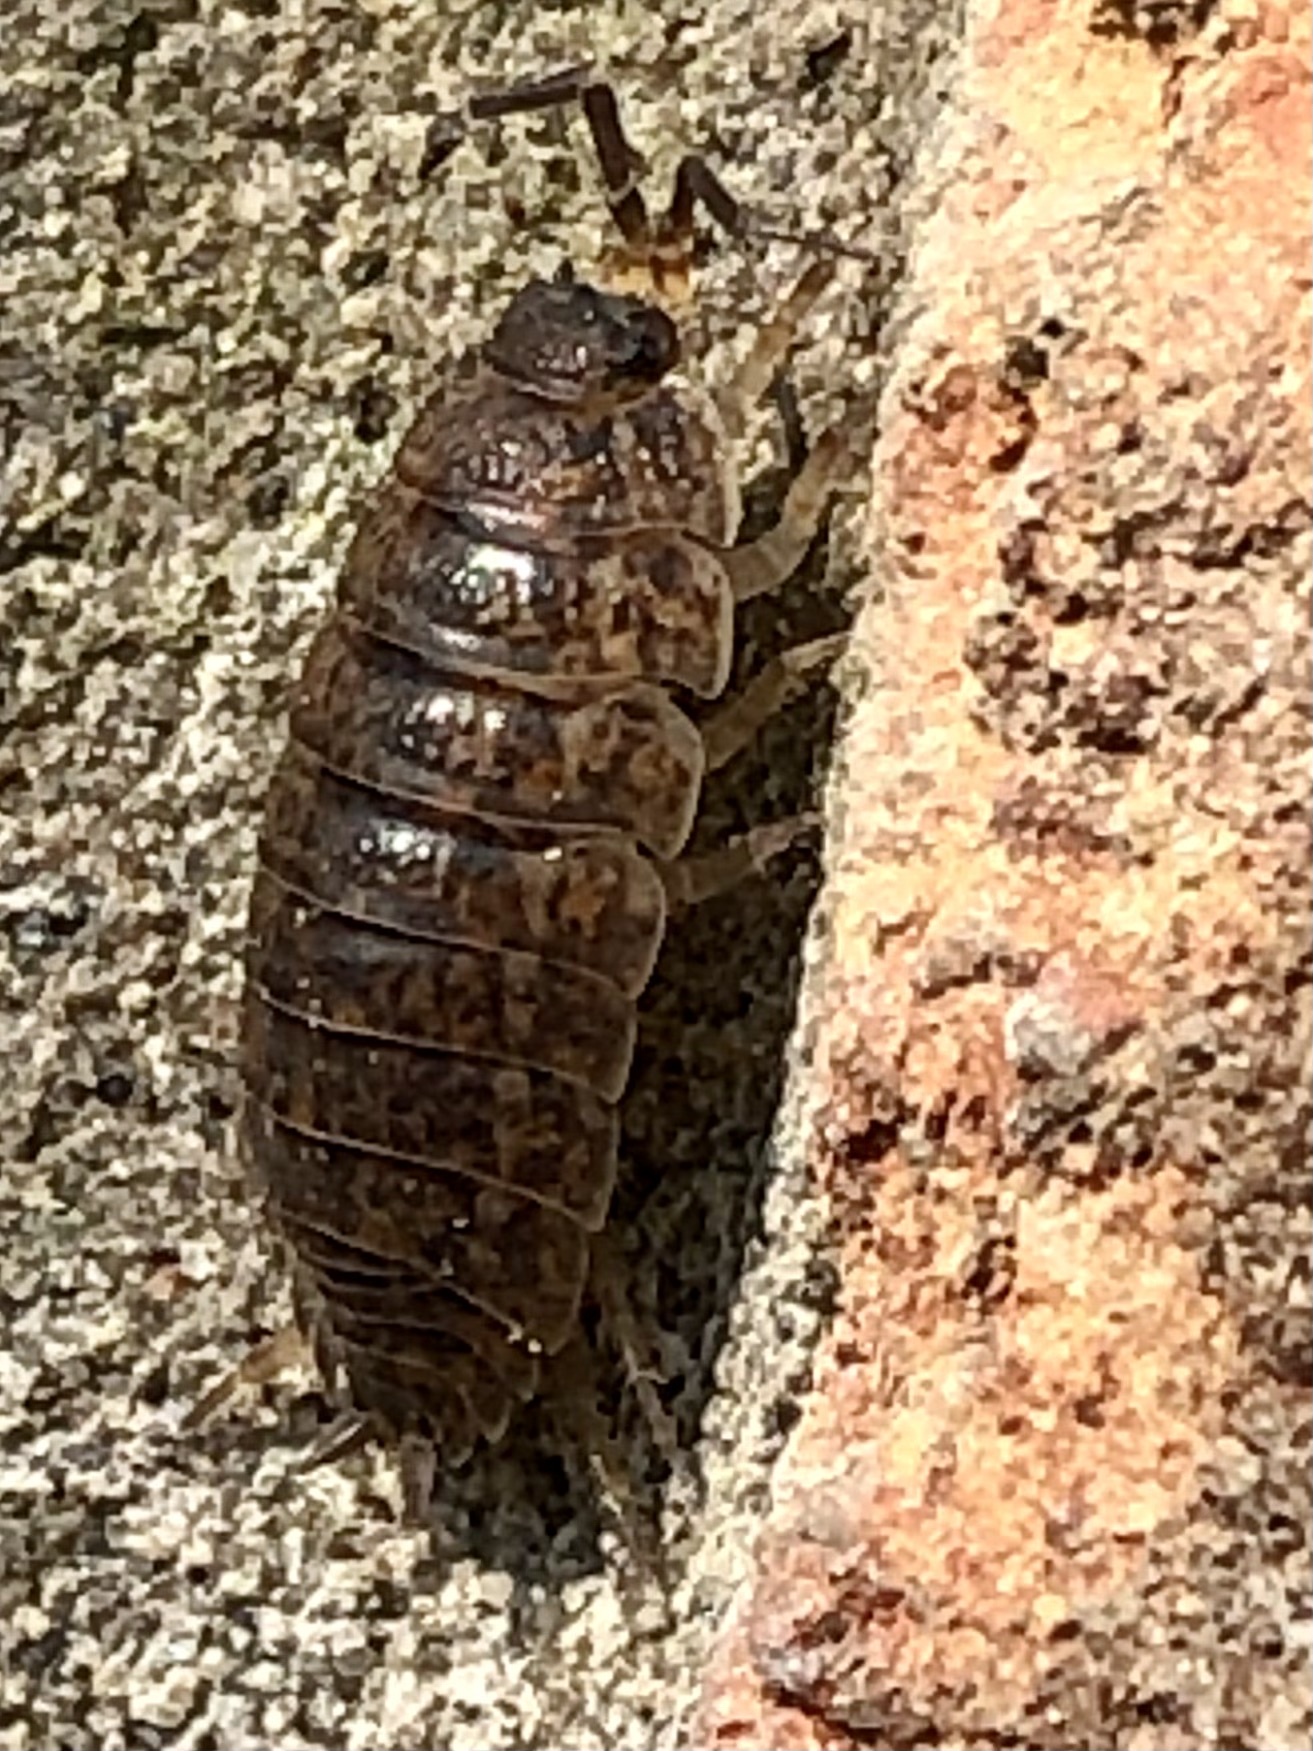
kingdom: Animalia
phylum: Arthropoda
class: Malacostraca
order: Isopoda
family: Trachelipodidae
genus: Trachelipus
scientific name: Trachelipus rathkii
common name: Isopod
